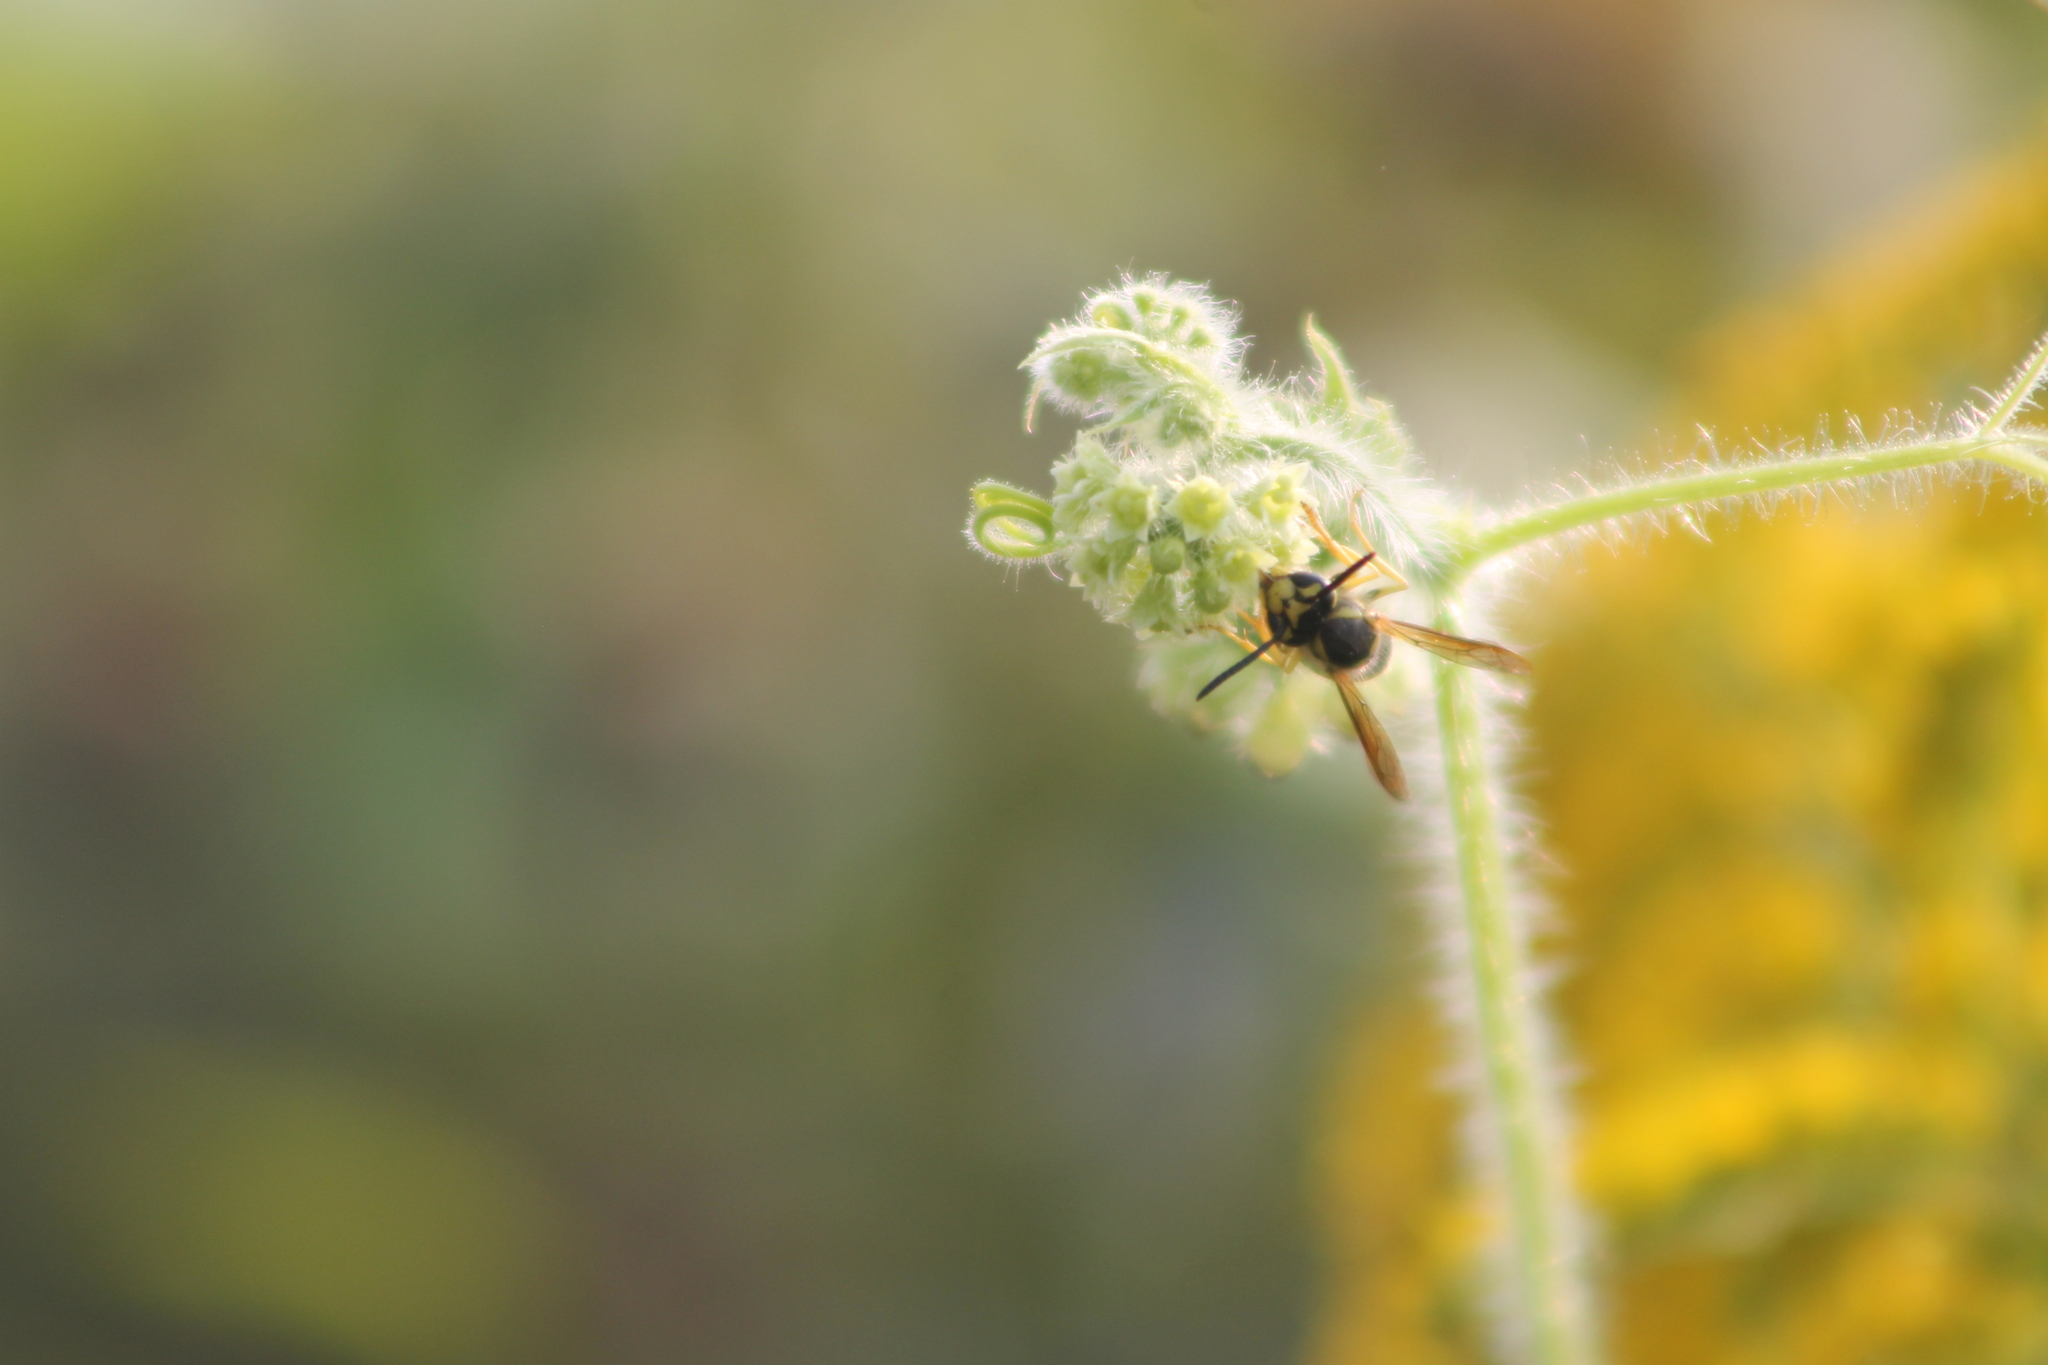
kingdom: Animalia
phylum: Arthropoda
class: Insecta
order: Hymenoptera
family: Vespidae
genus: Vespula
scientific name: Vespula
